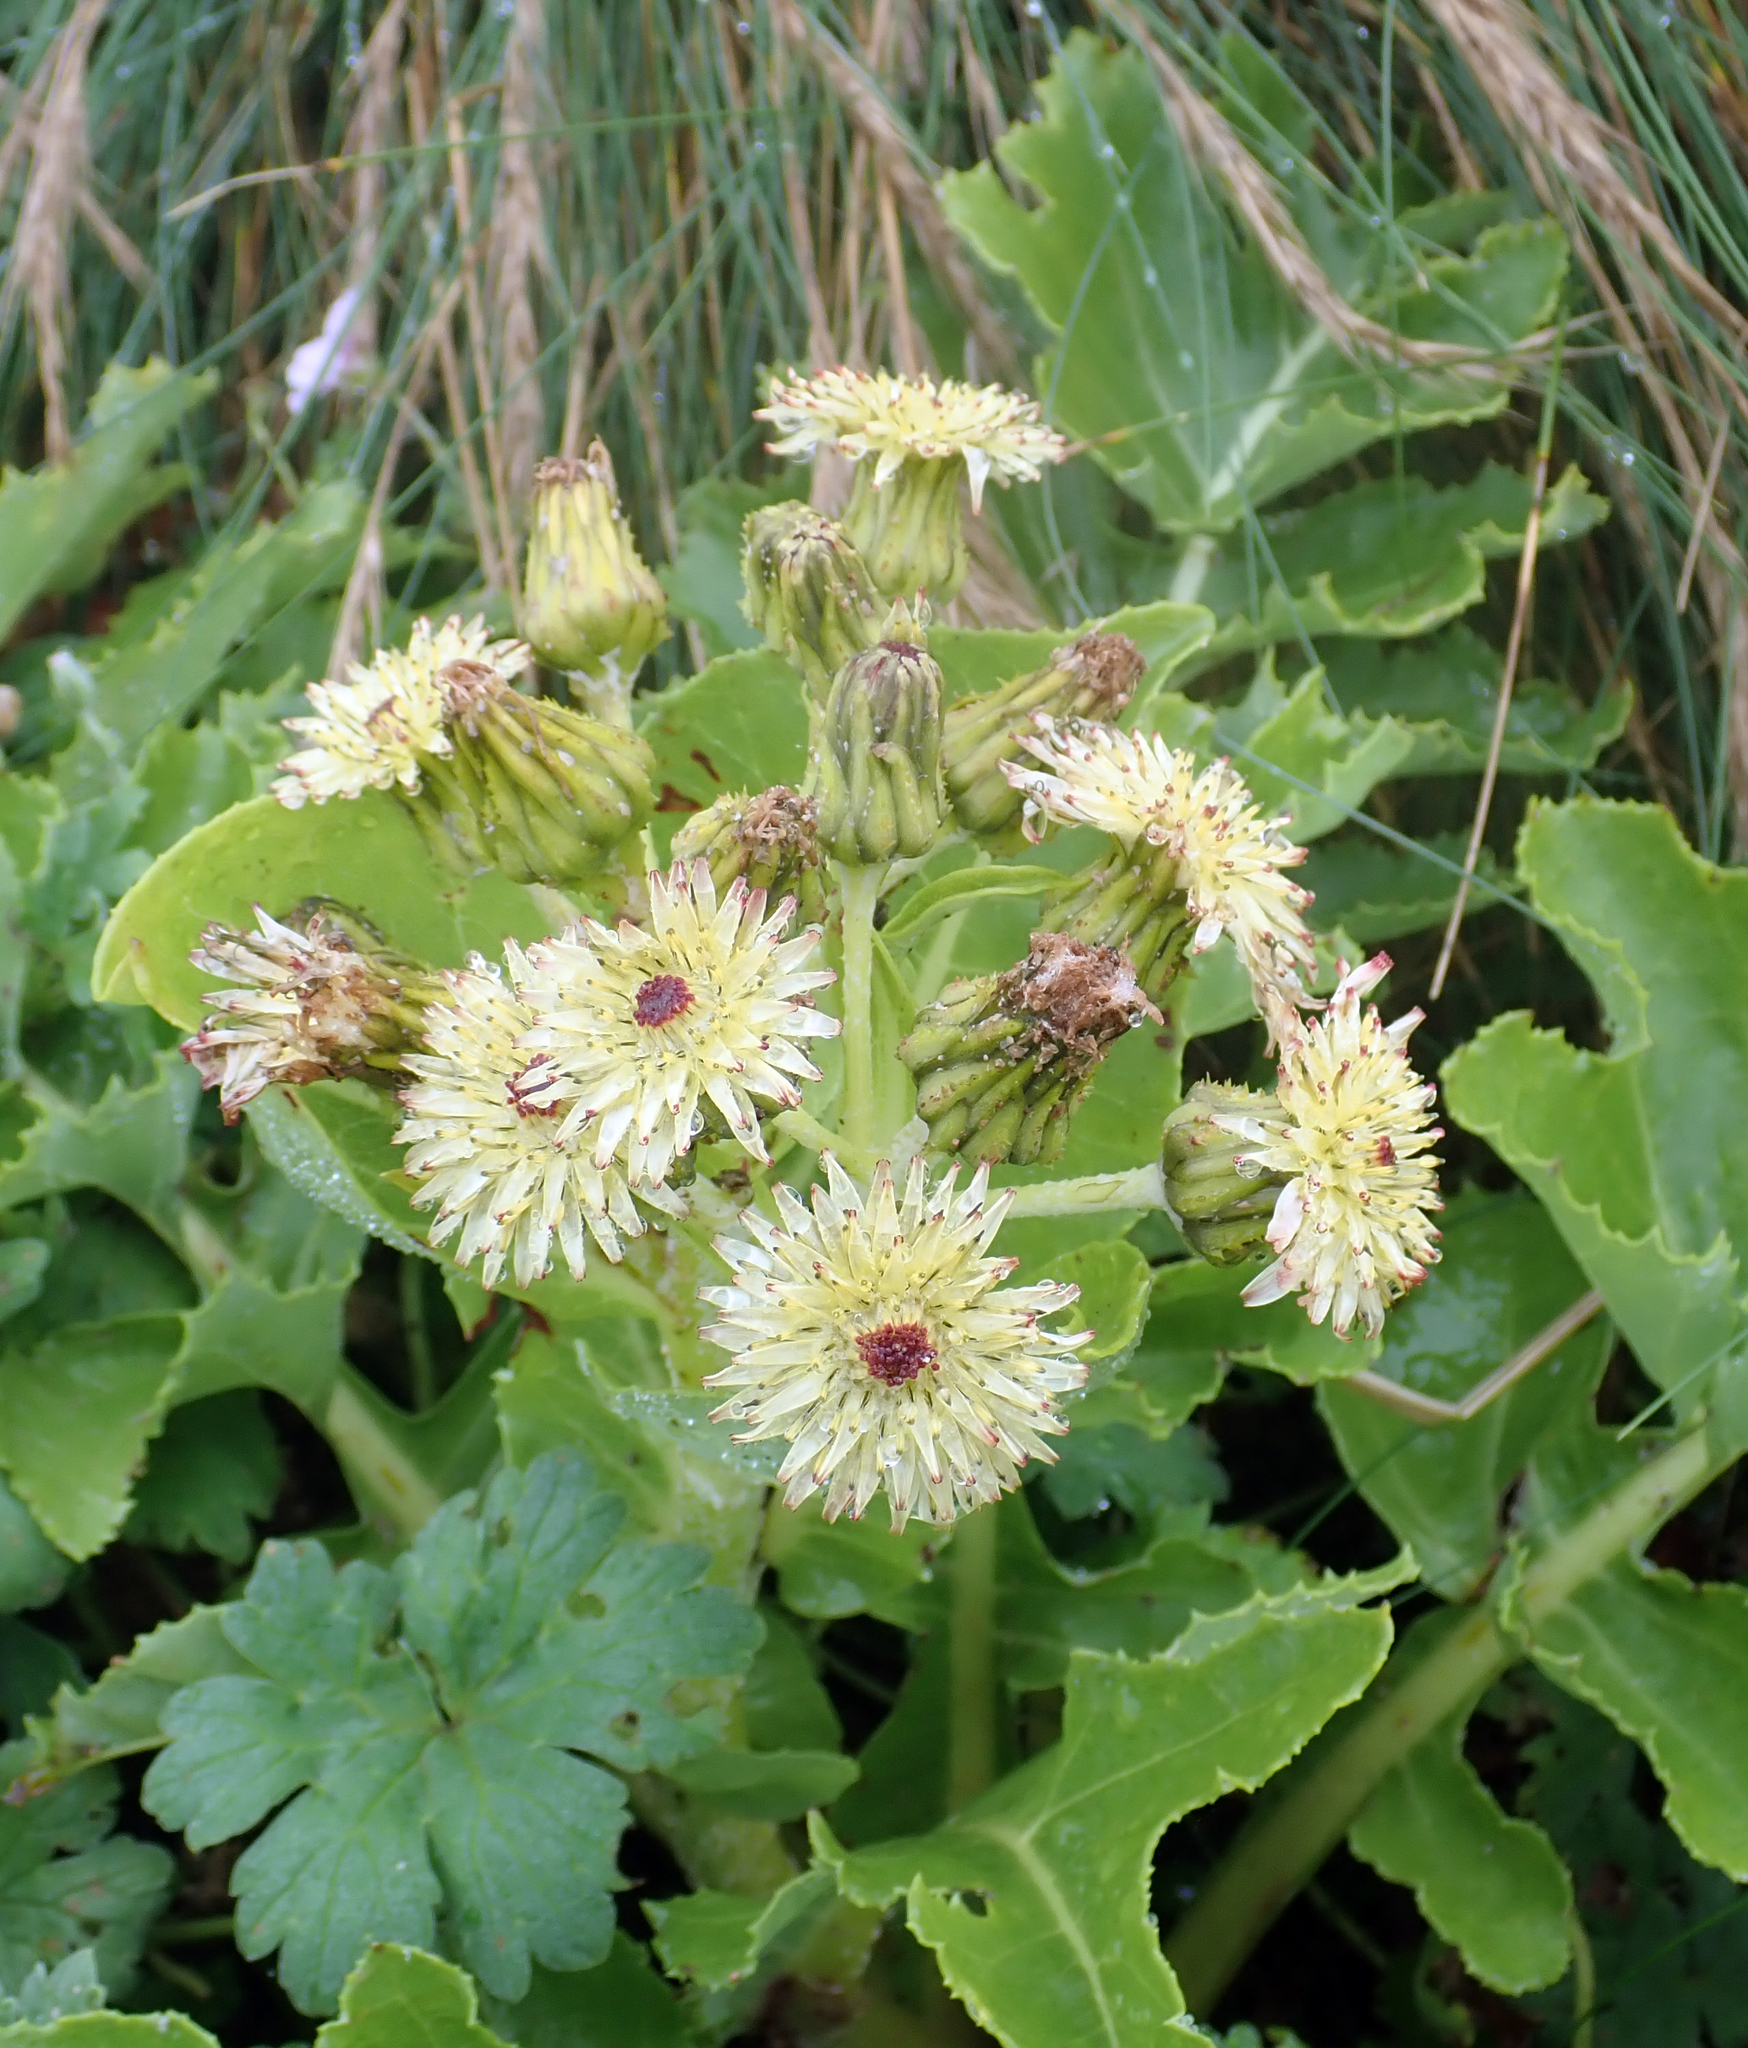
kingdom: Plantae
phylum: Tracheophyta
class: Magnoliopsida
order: Asterales
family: Asteraceae
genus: Sonchus
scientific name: Sonchus grandifolius
